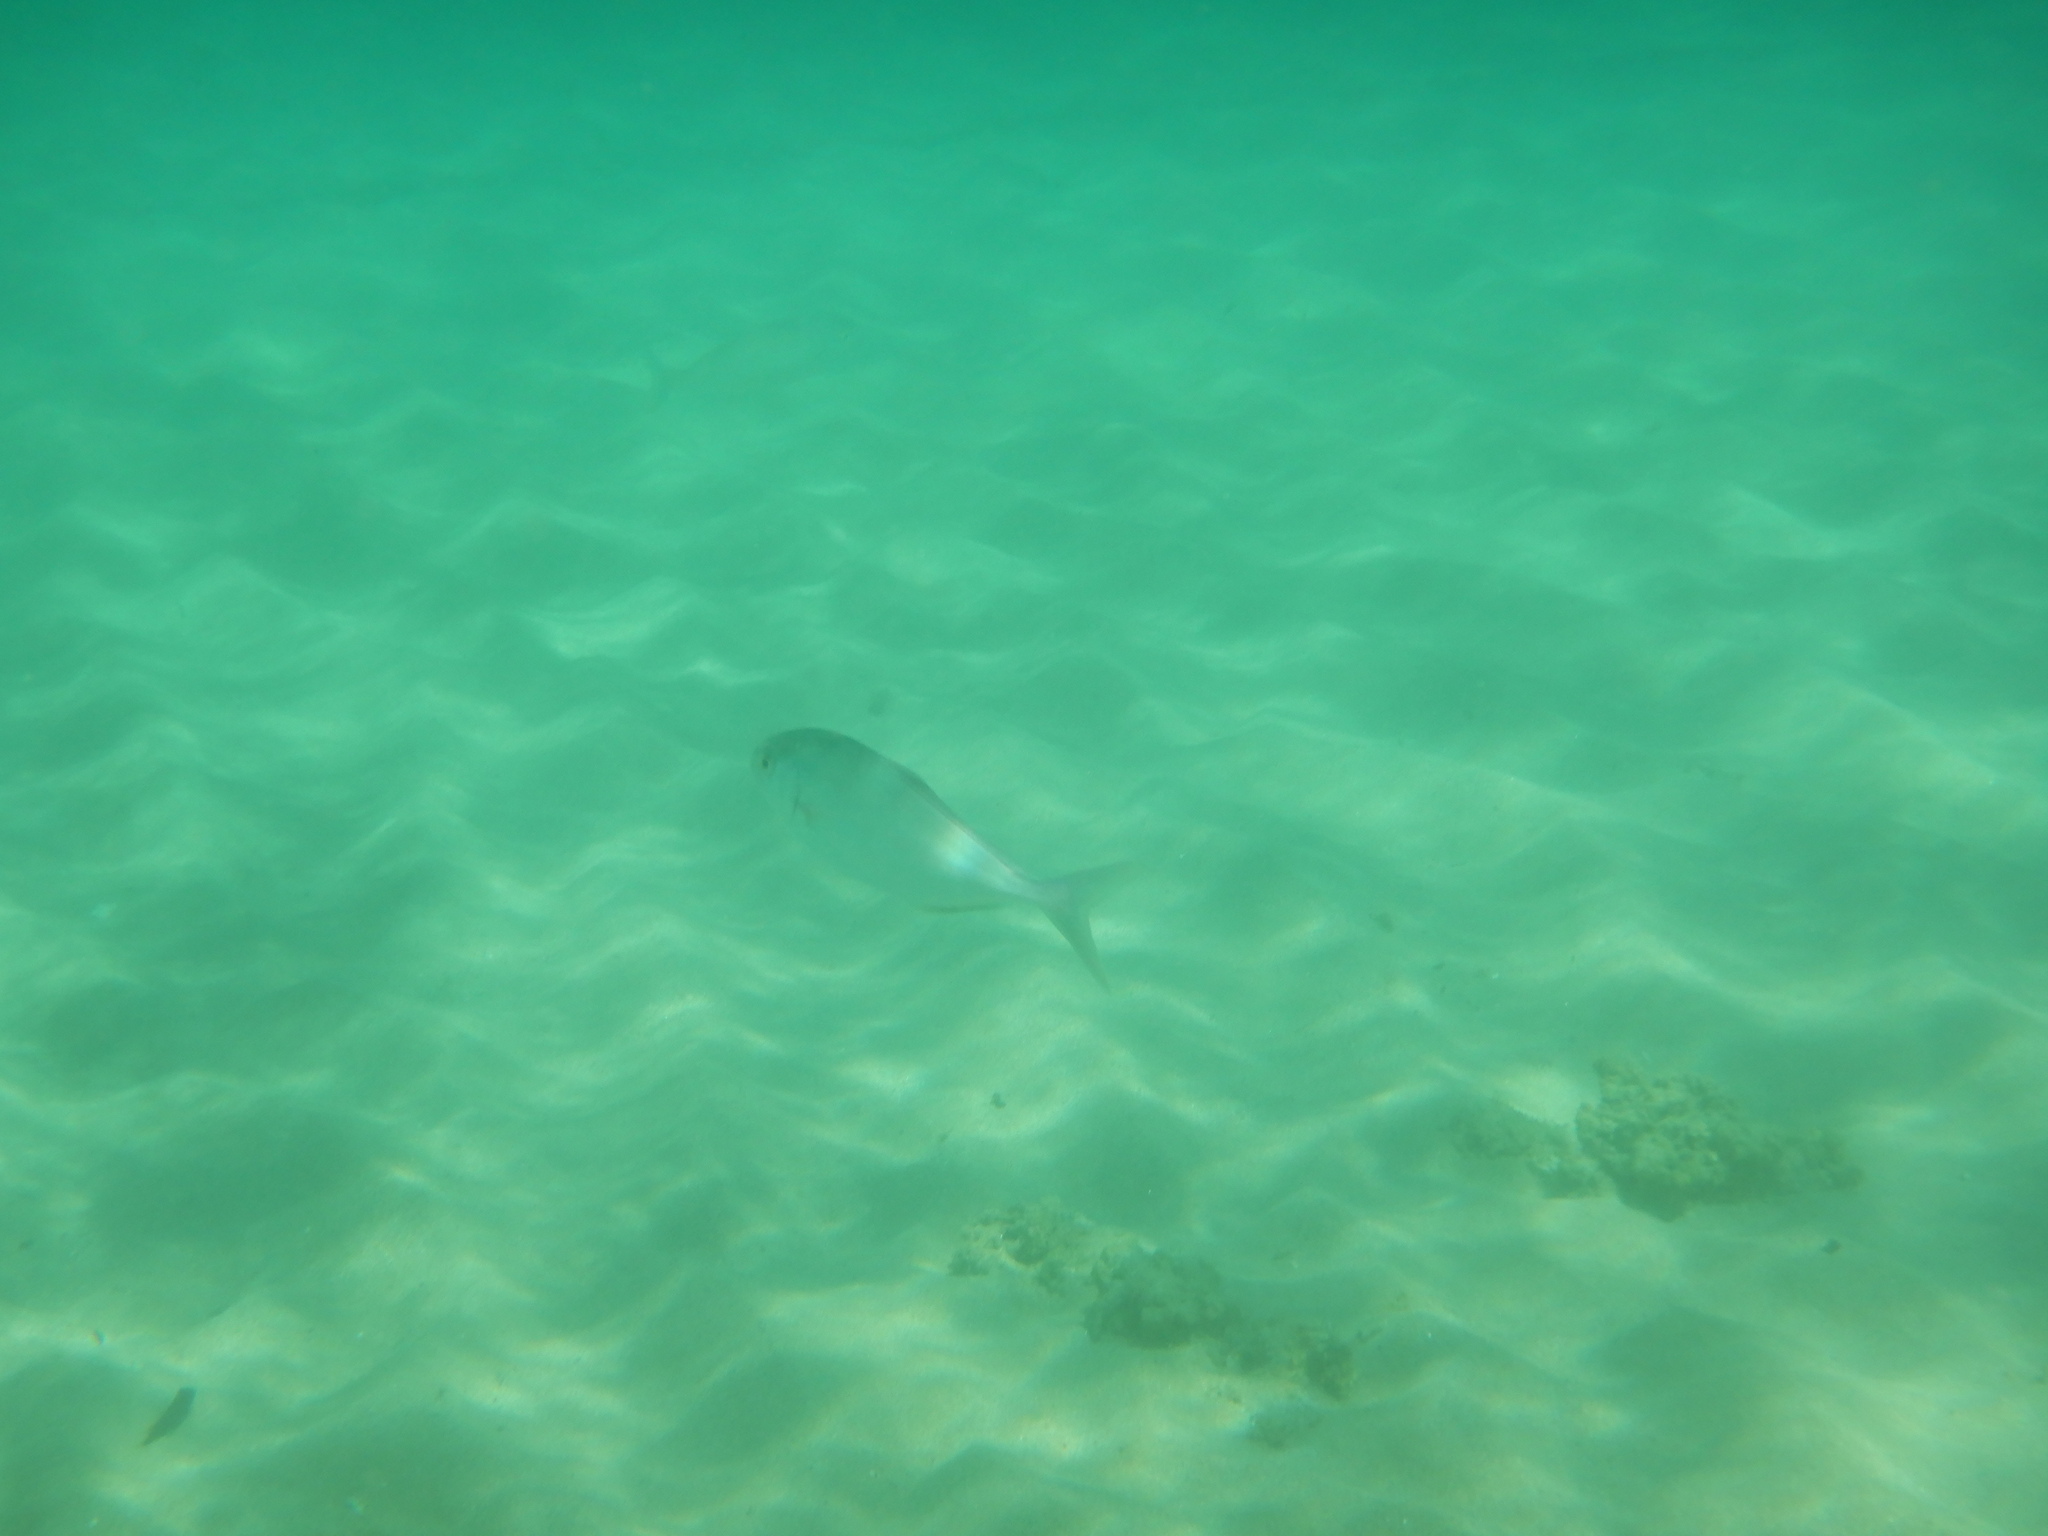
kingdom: Animalia
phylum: Chordata
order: Perciformes
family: Carangidae
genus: Seriola
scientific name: Seriola dumerili
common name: Greater amberjack
